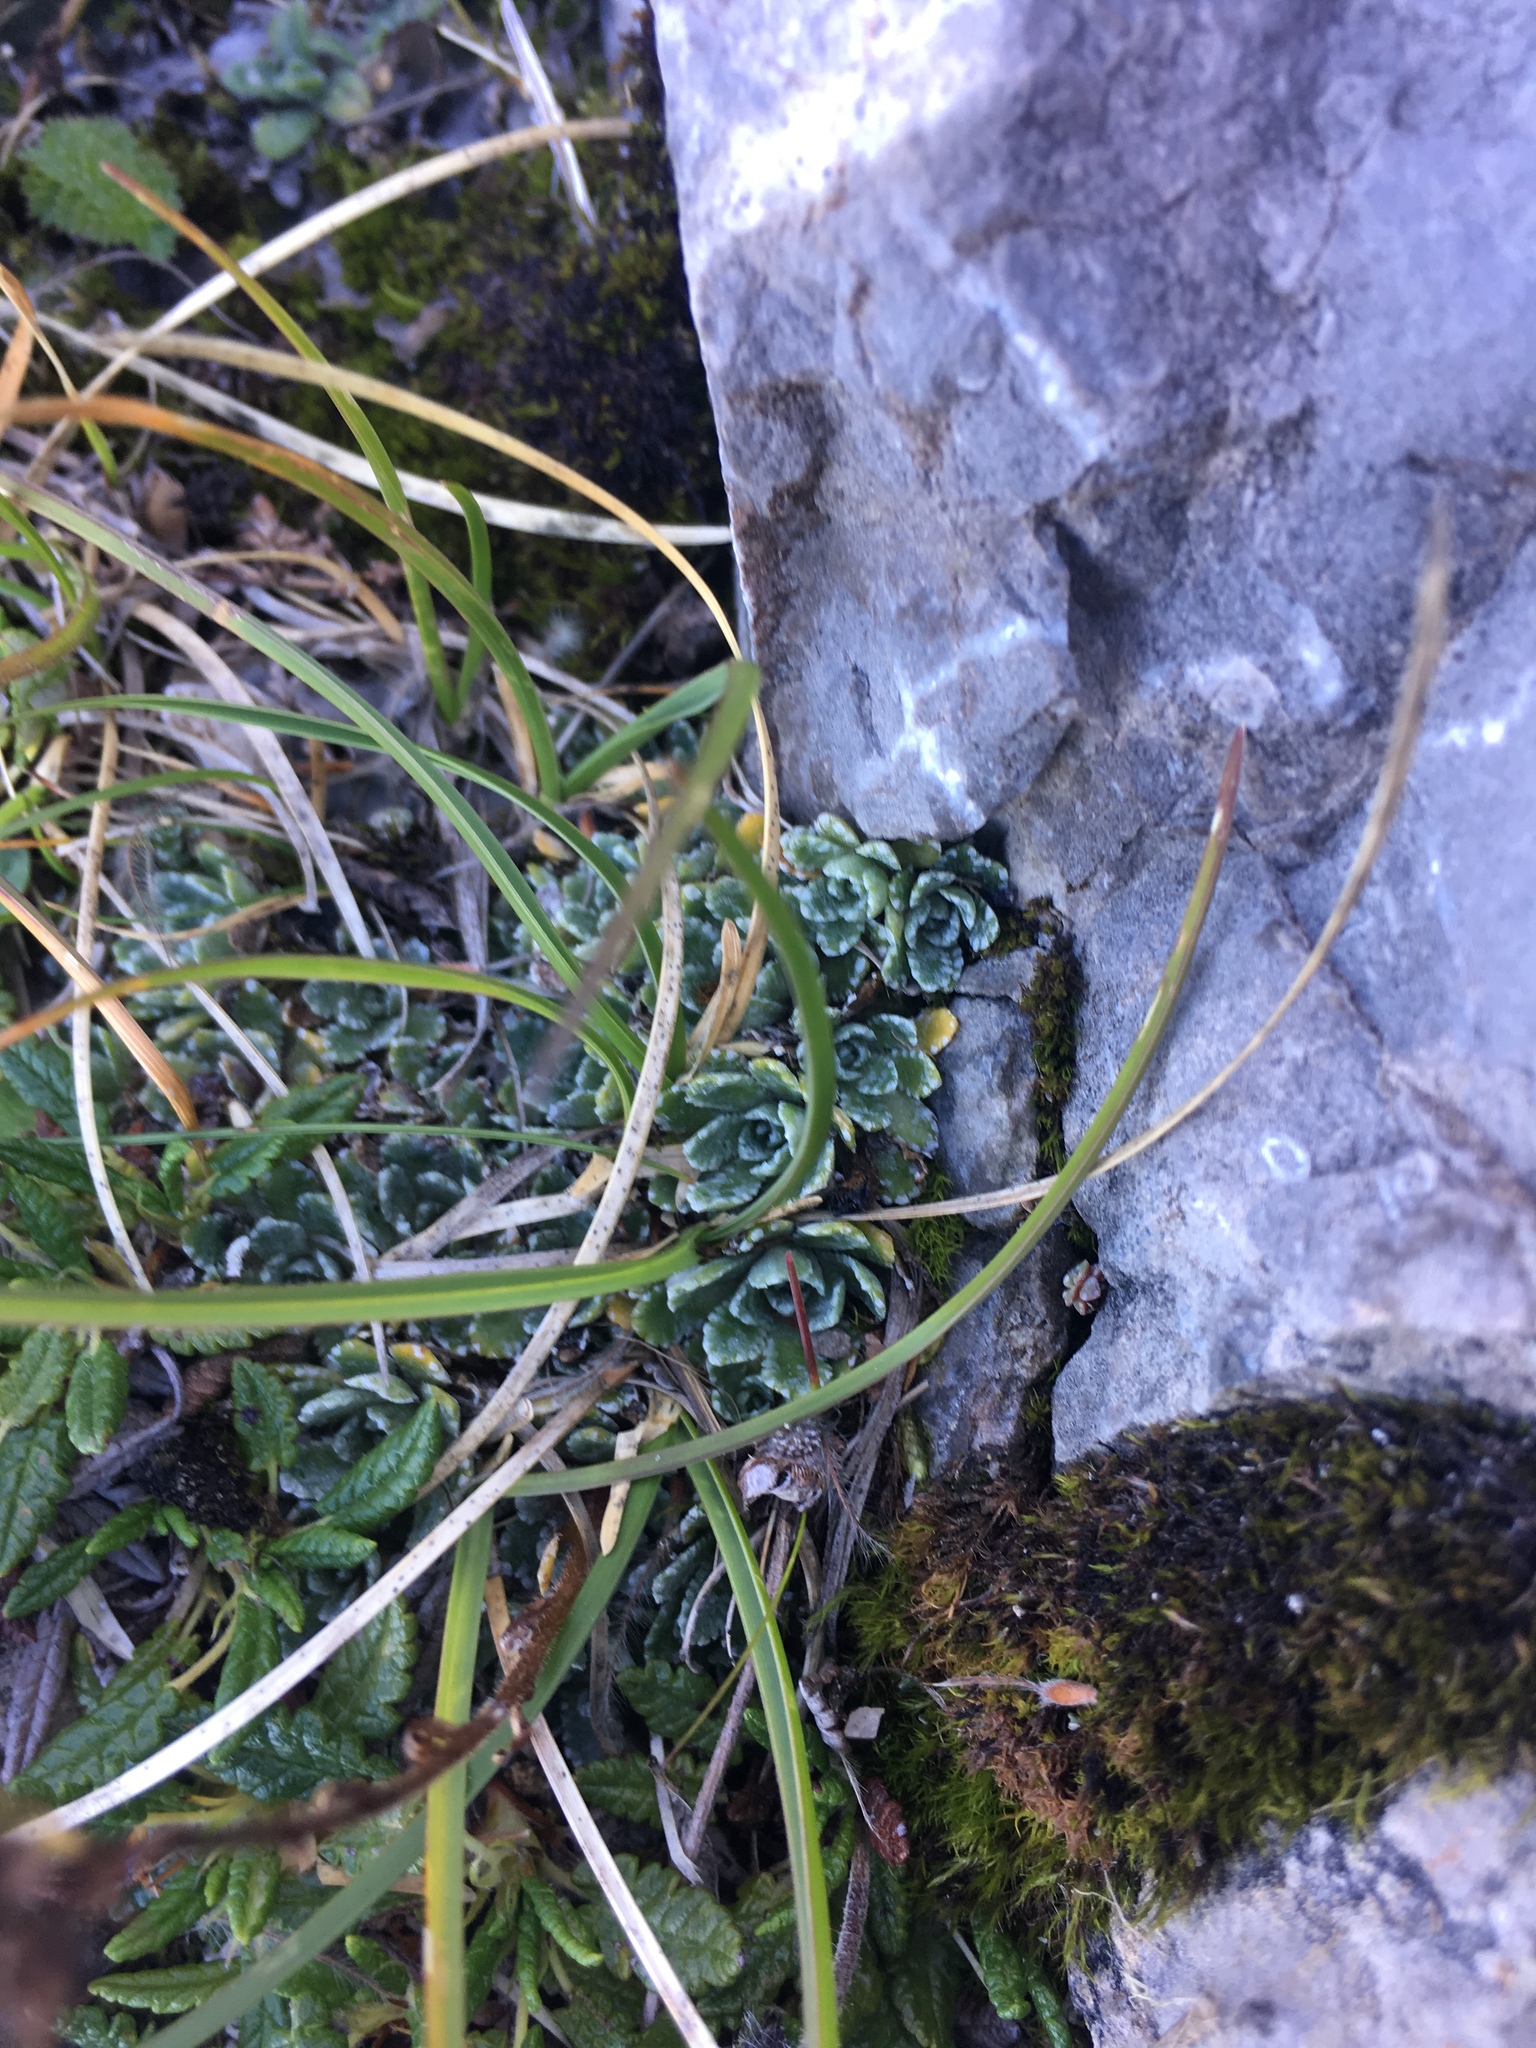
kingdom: Plantae
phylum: Tracheophyta
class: Magnoliopsida
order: Saxifragales
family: Saxifragaceae
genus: Saxifraga
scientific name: Saxifraga paniculata
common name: Livelong saxifrage
